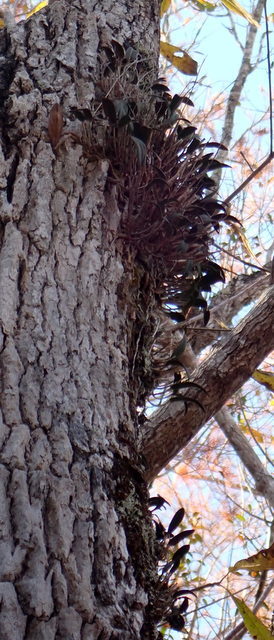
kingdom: Plantae
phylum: Tracheophyta
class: Liliopsida
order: Asparagales
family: Orchidaceae
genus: Epidendrum
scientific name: Epidendrum conopseum
